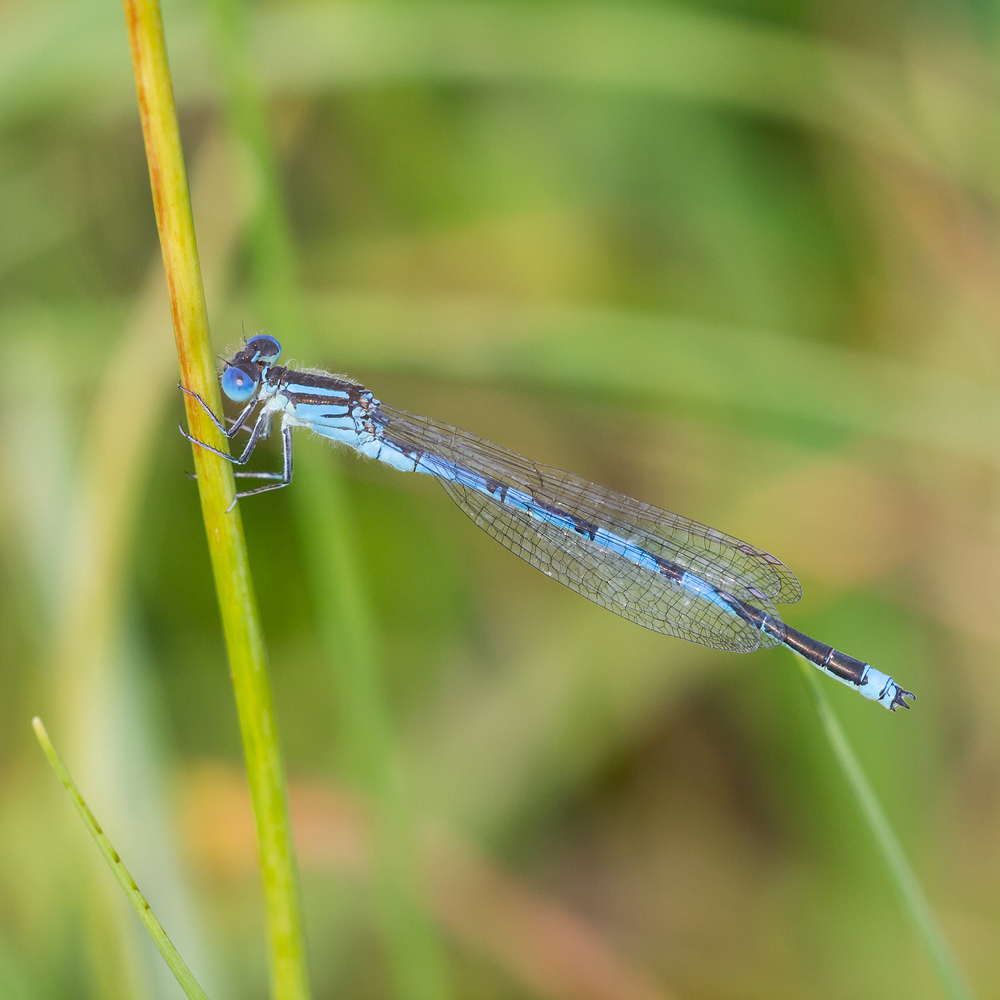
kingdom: Animalia
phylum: Arthropoda
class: Insecta
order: Odonata
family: Coenagrionidae
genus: Erythromma
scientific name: Erythromma lindenii
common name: Blue-eye
